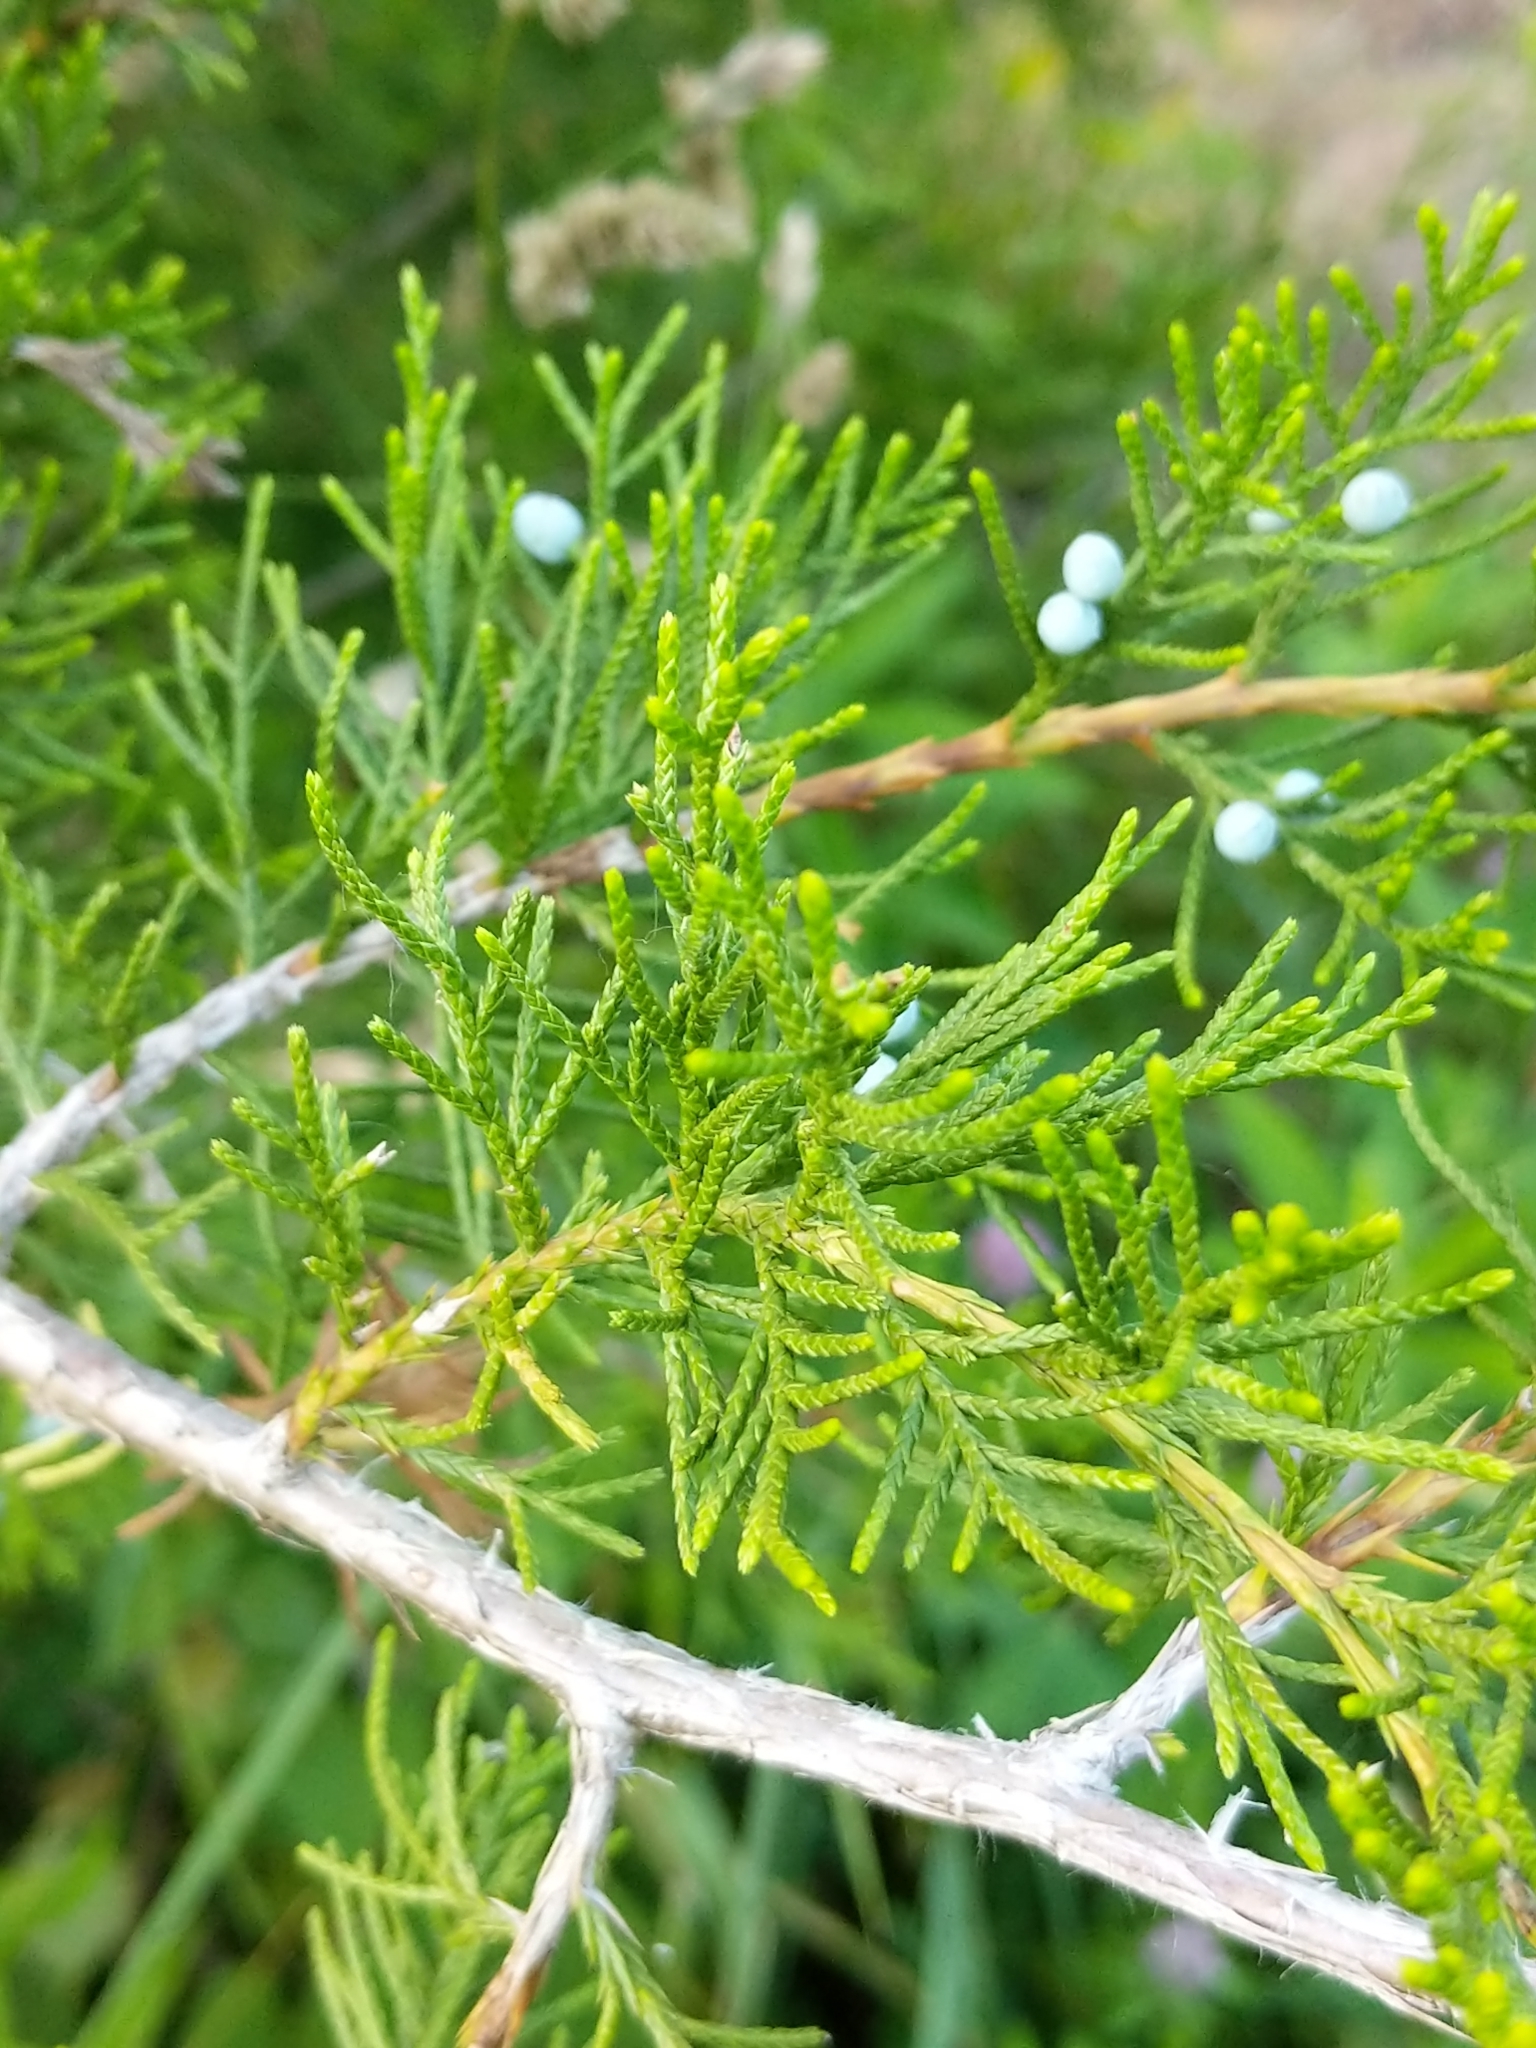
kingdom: Fungi
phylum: Basidiomycota
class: Pucciniomycetes
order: Pucciniales
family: Gymnosporangiaceae
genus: Gymnosporangium
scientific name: Gymnosporangium globosum
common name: Juniper-hawthorn rust
